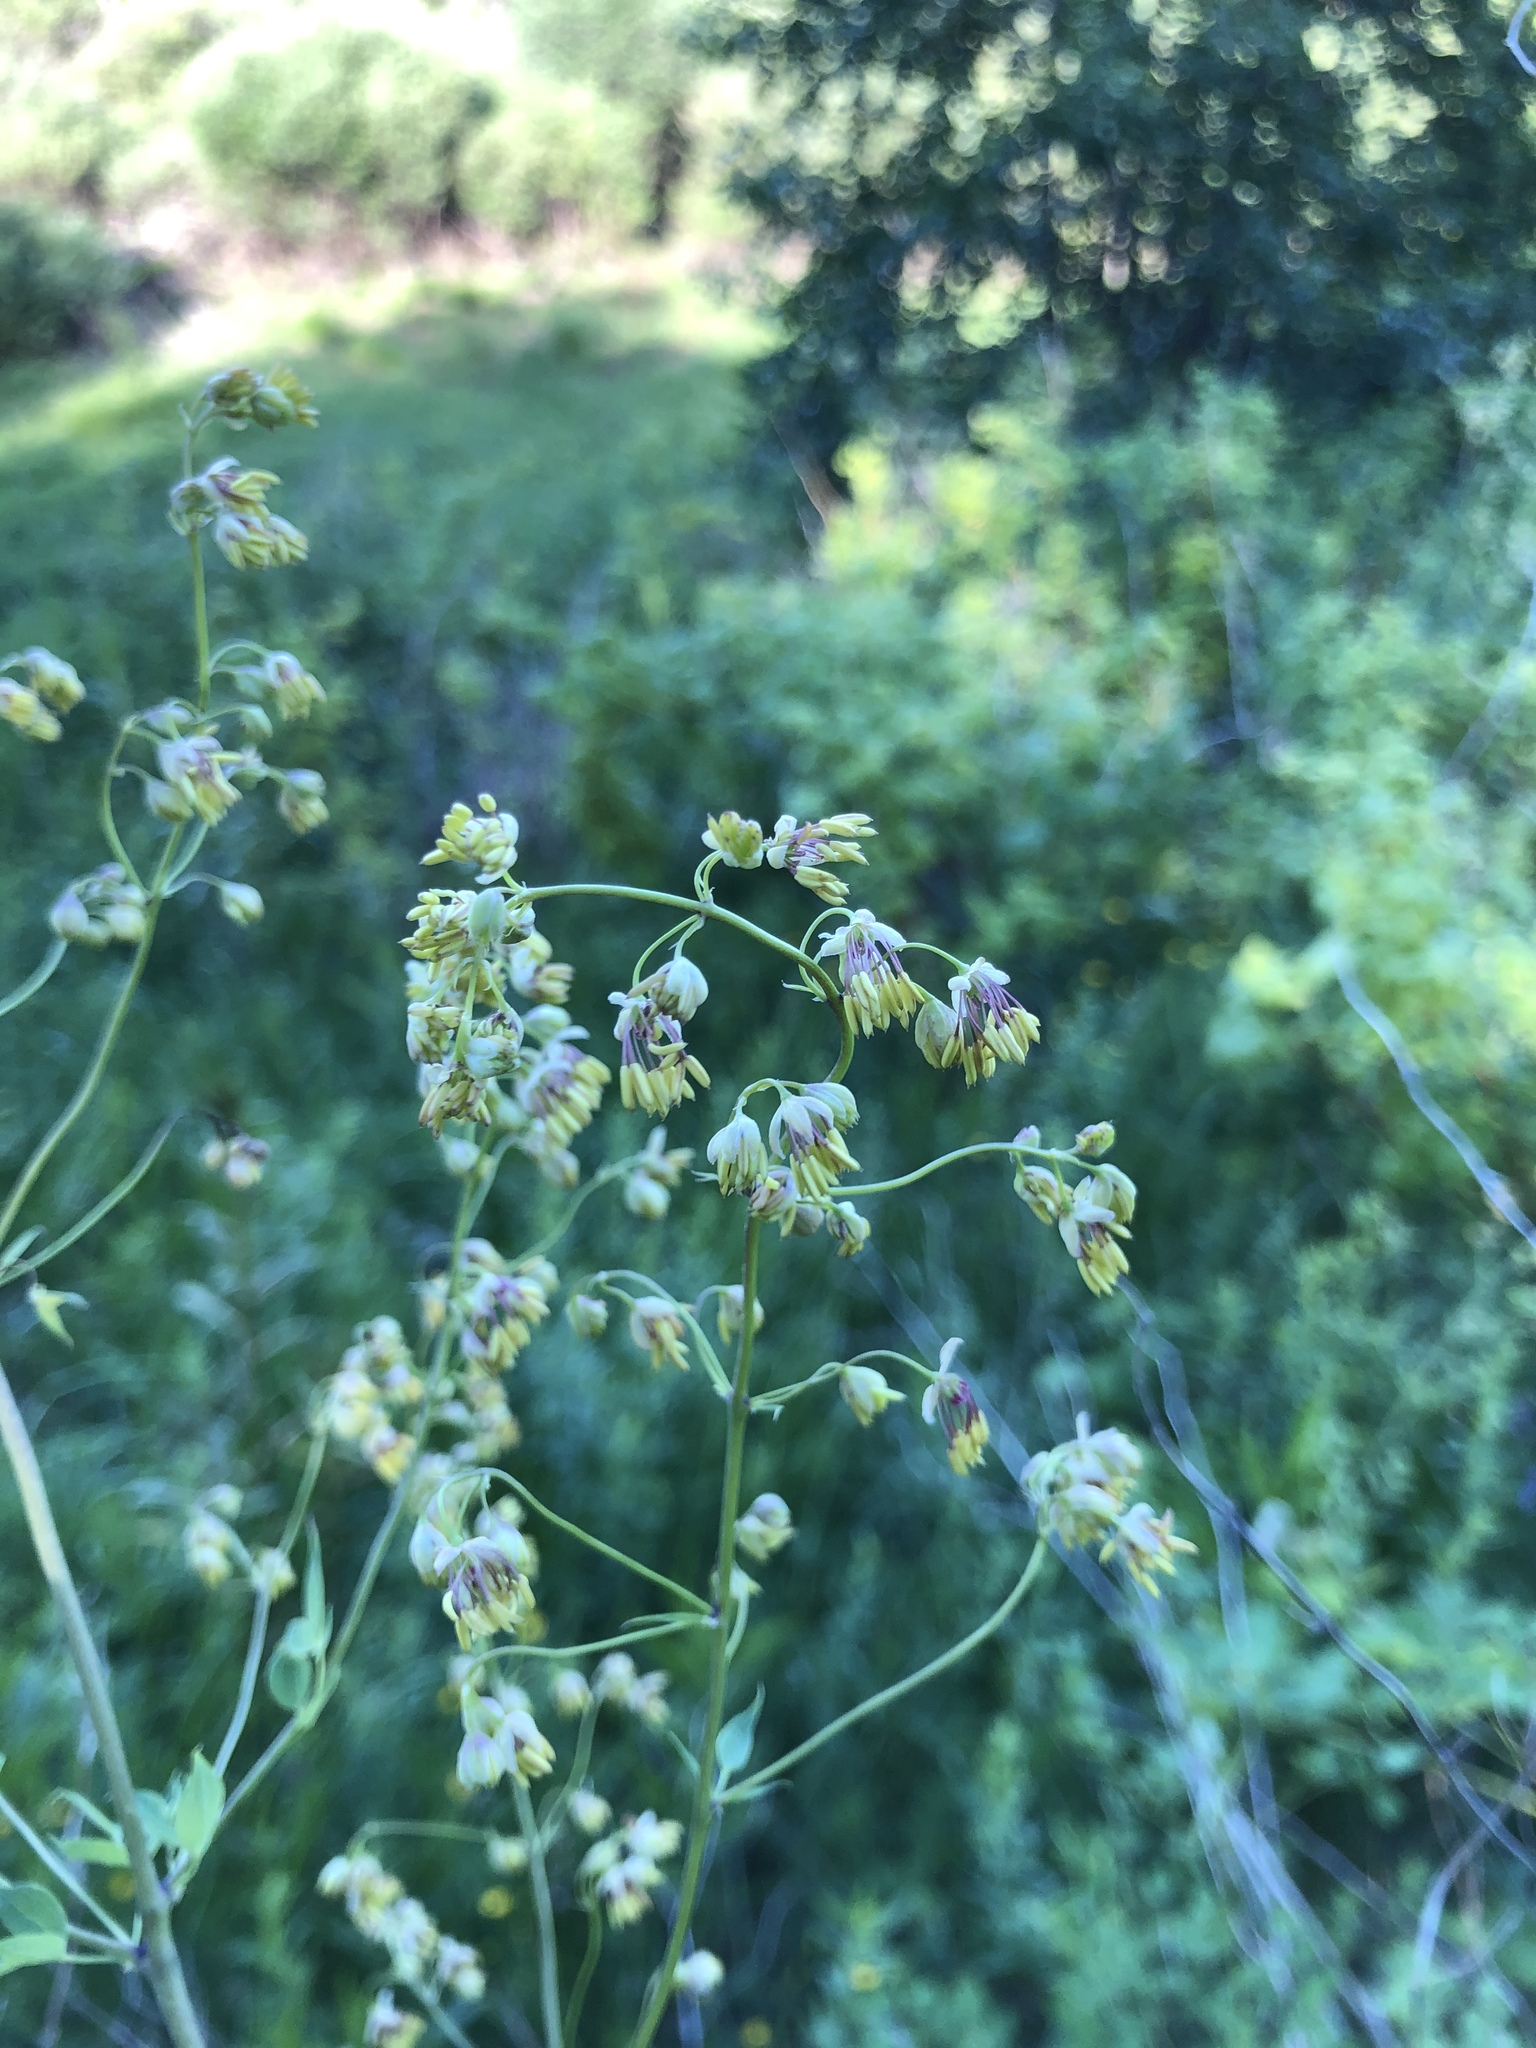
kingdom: Plantae
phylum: Tracheophyta
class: Magnoliopsida
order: Ranunculales
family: Ranunculaceae
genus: Thalictrum
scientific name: Thalictrum minus
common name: Lesser meadow-rue
